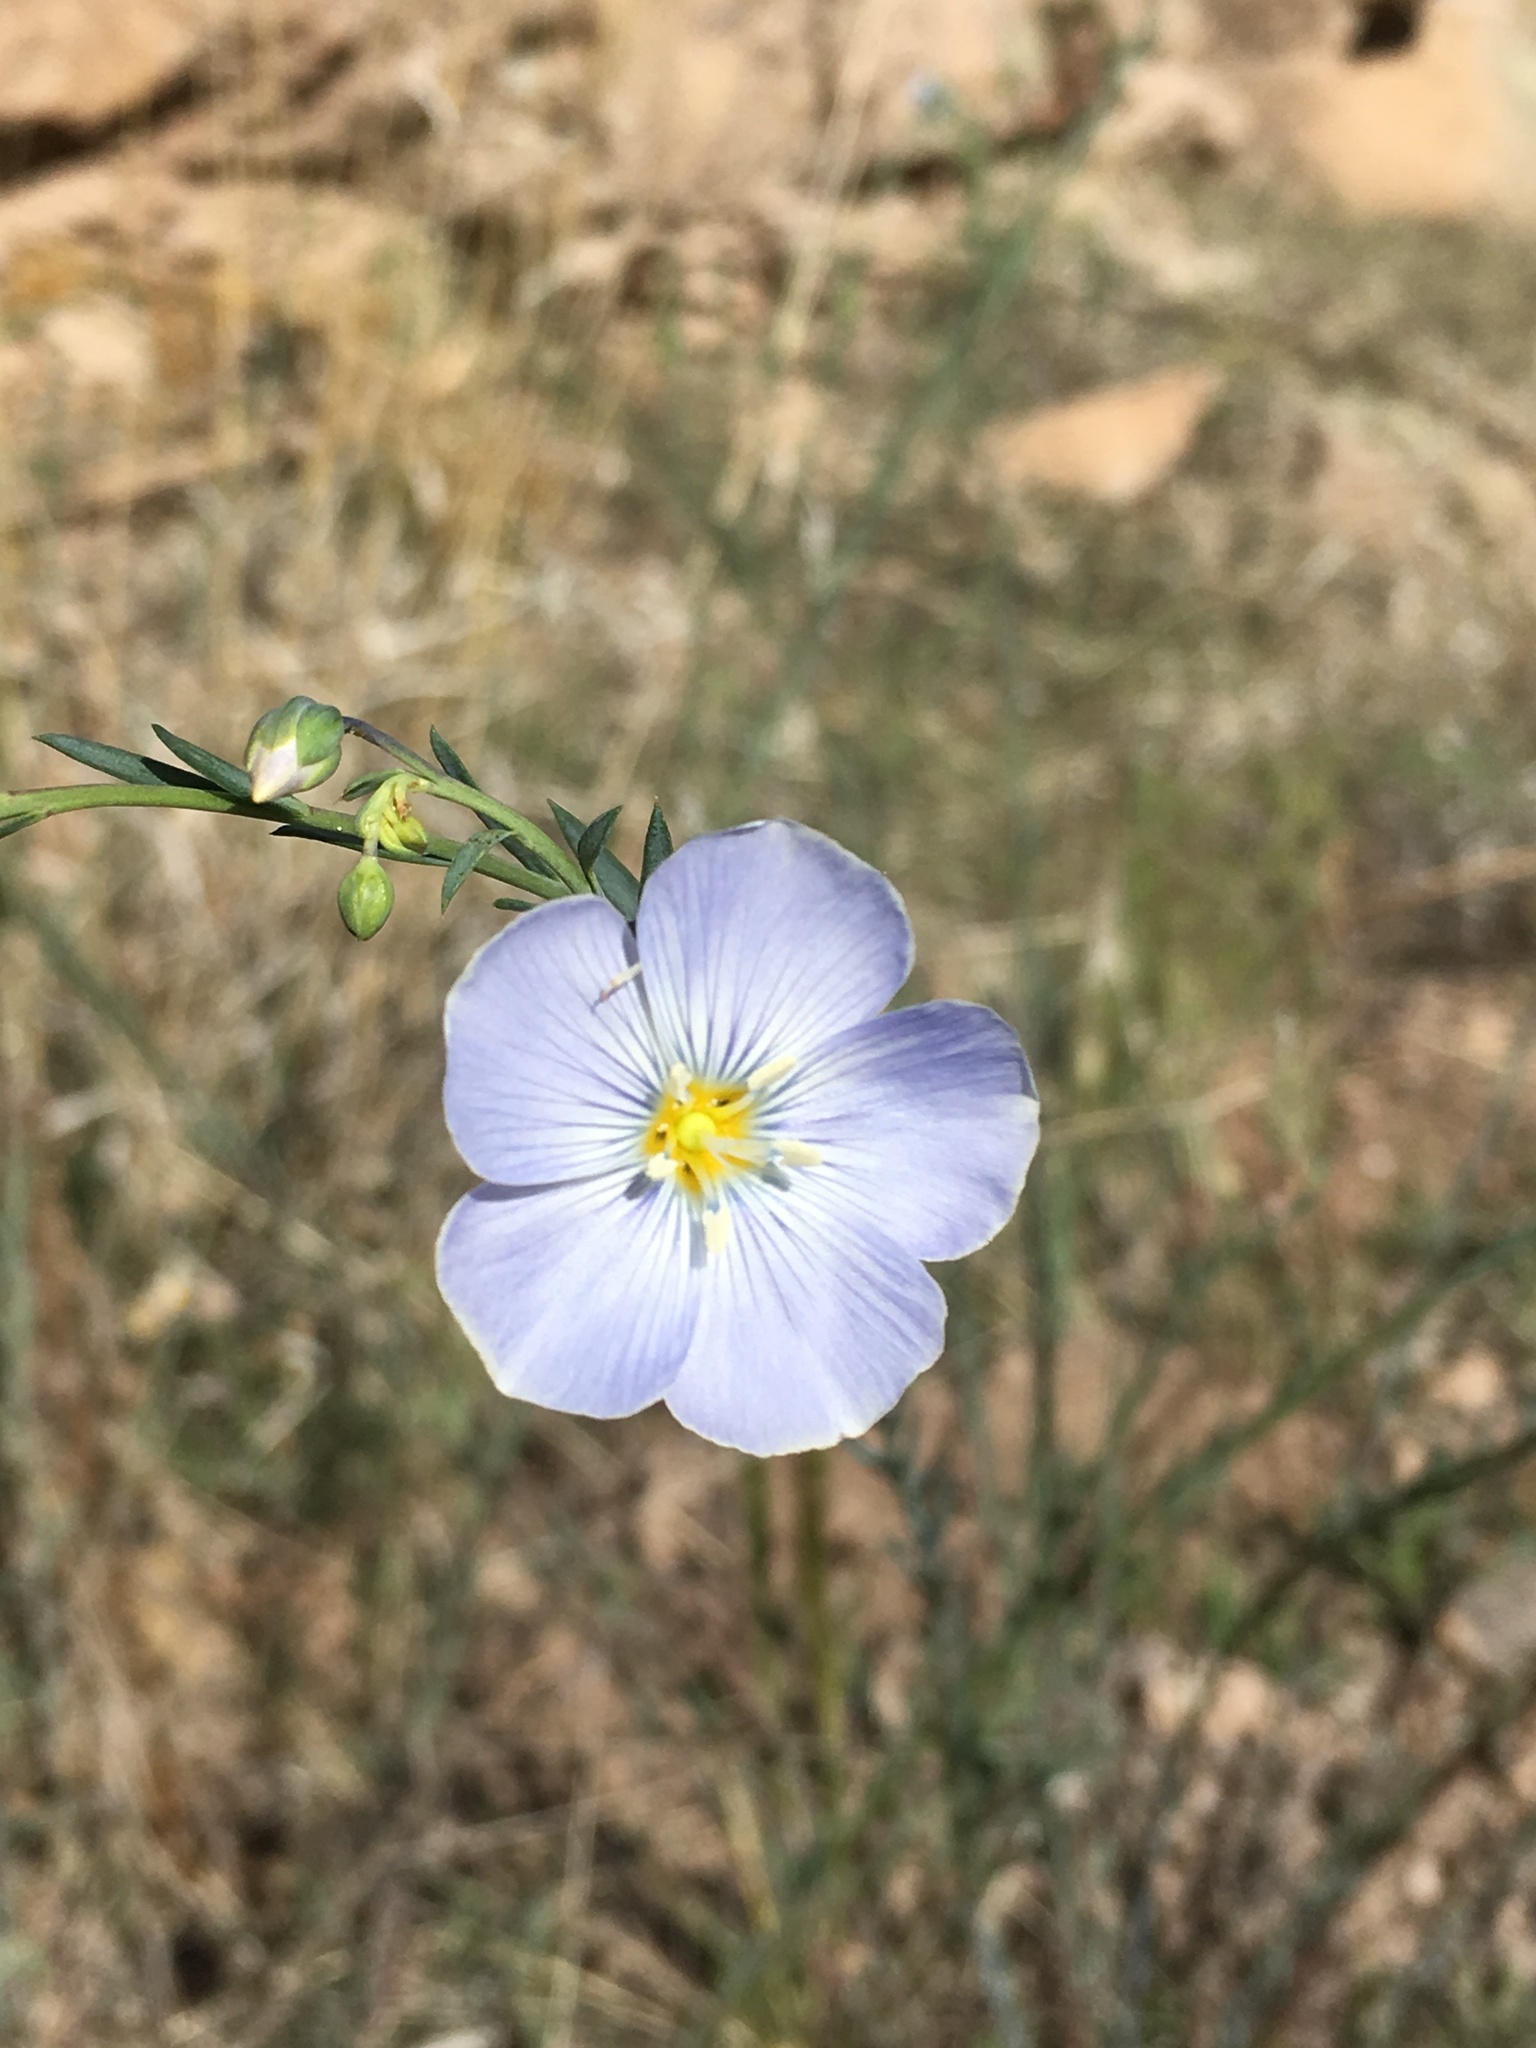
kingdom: Plantae
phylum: Tracheophyta
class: Magnoliopsida
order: Malpighiales
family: Linaceae
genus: Linum
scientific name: Linum lewisii
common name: Prairie flax
